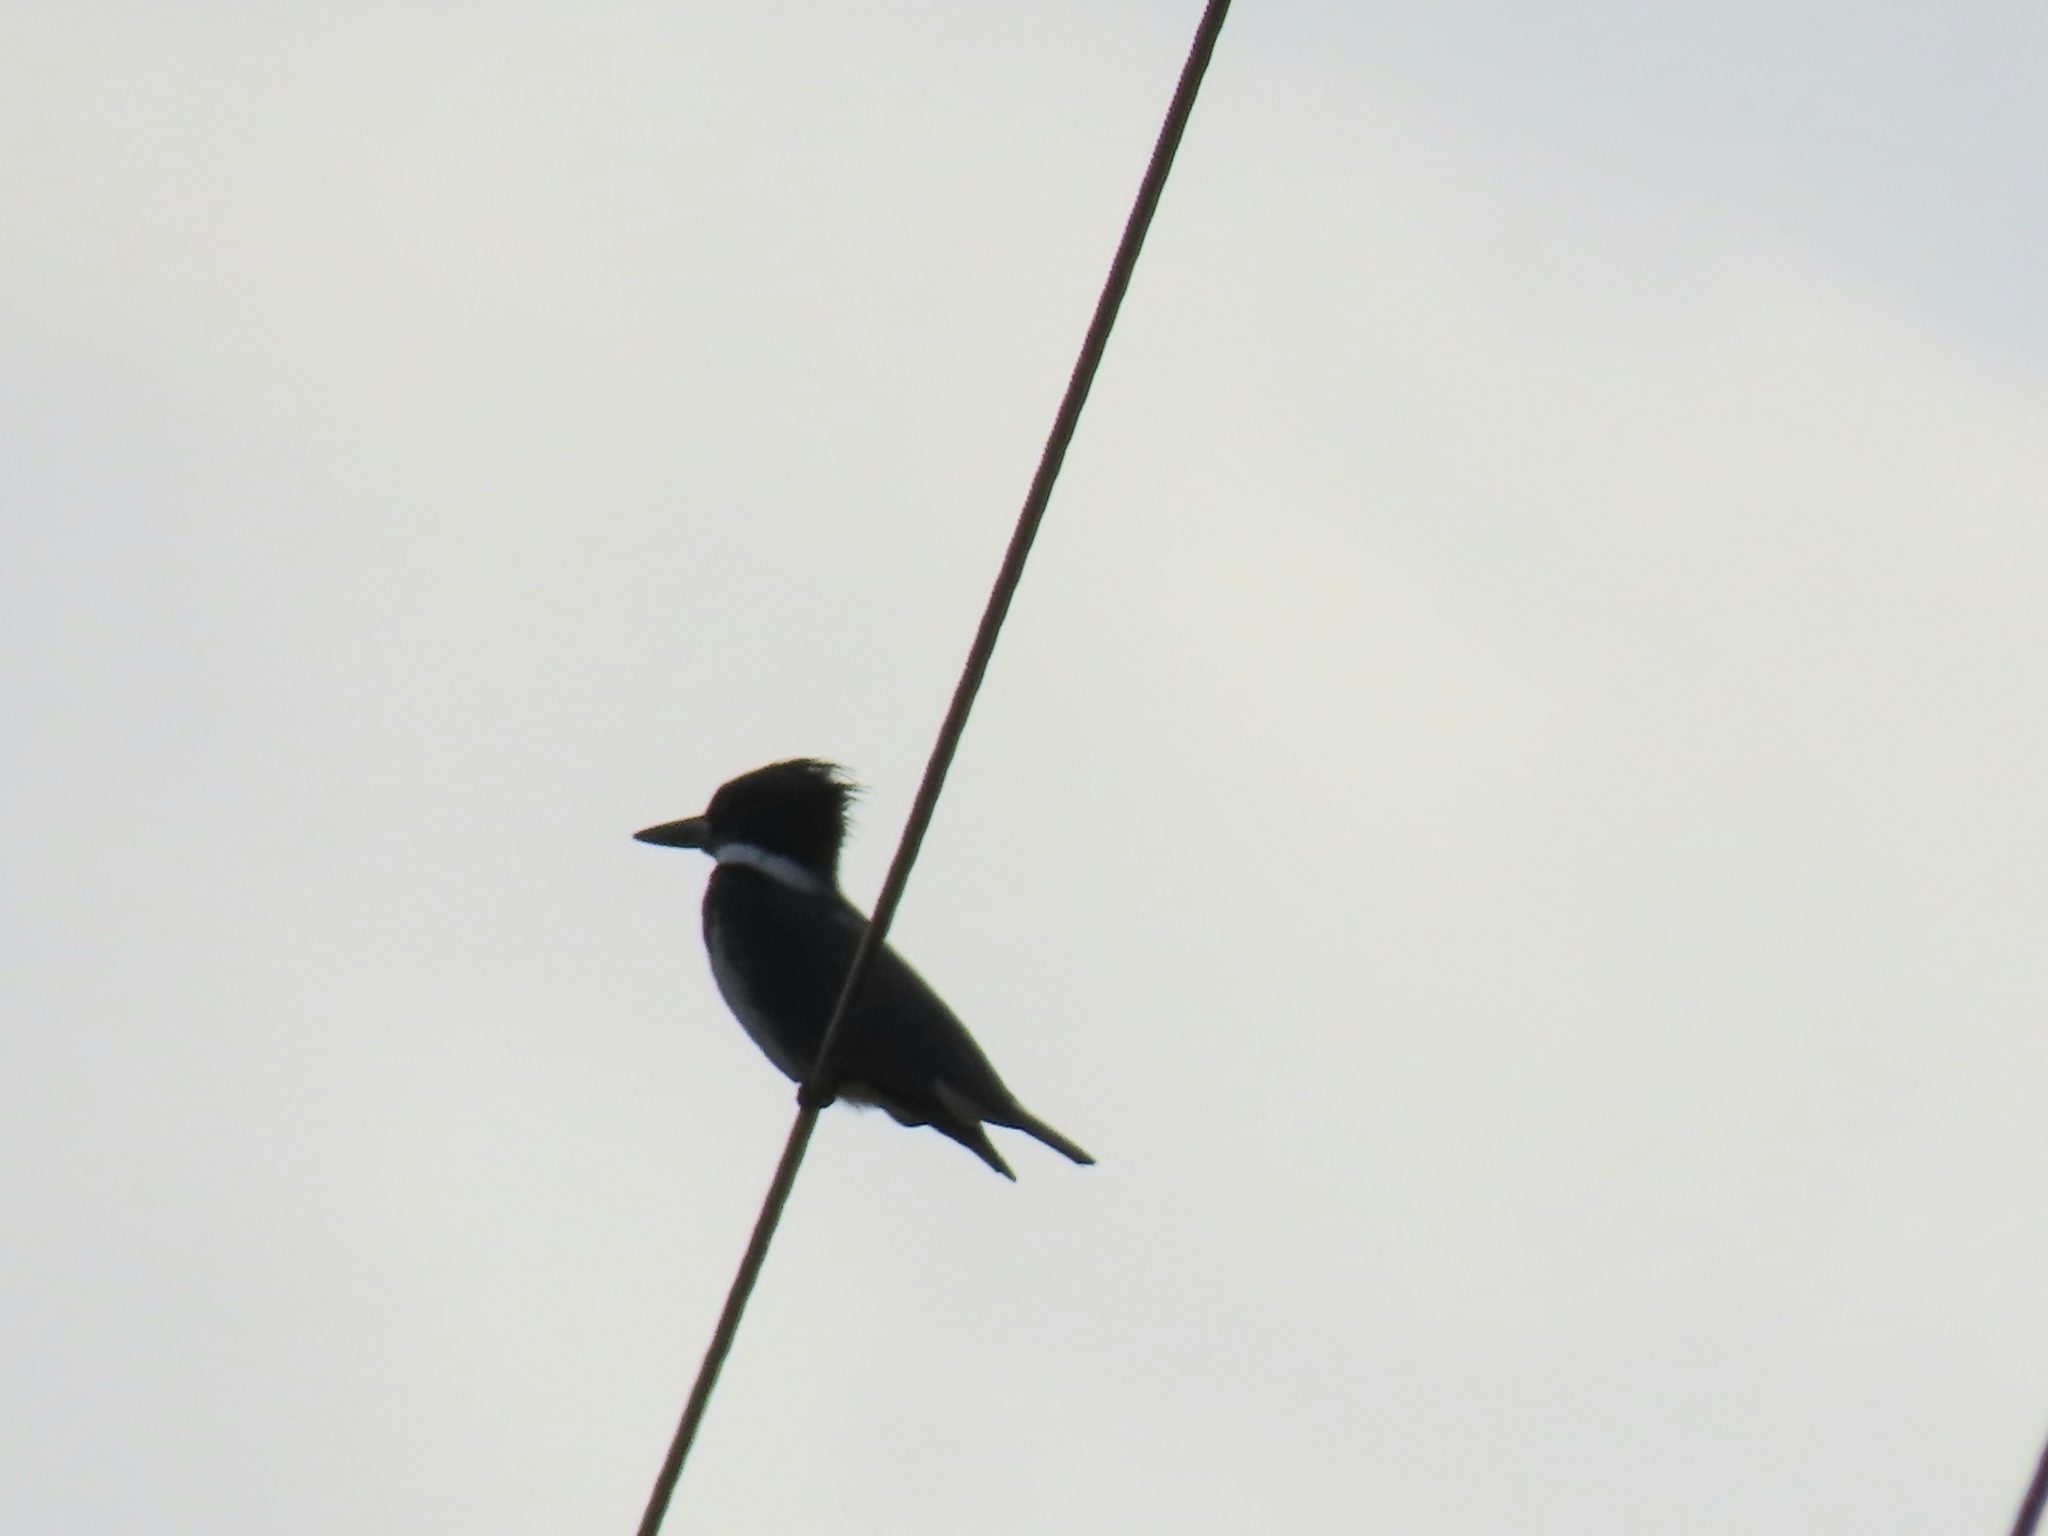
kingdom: Animalia
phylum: Chordata
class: Aves
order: Coraciiformes
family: Alcedinidae
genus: Megaceryle
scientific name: Megaceryle alcyon
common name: Belted kingfisher
